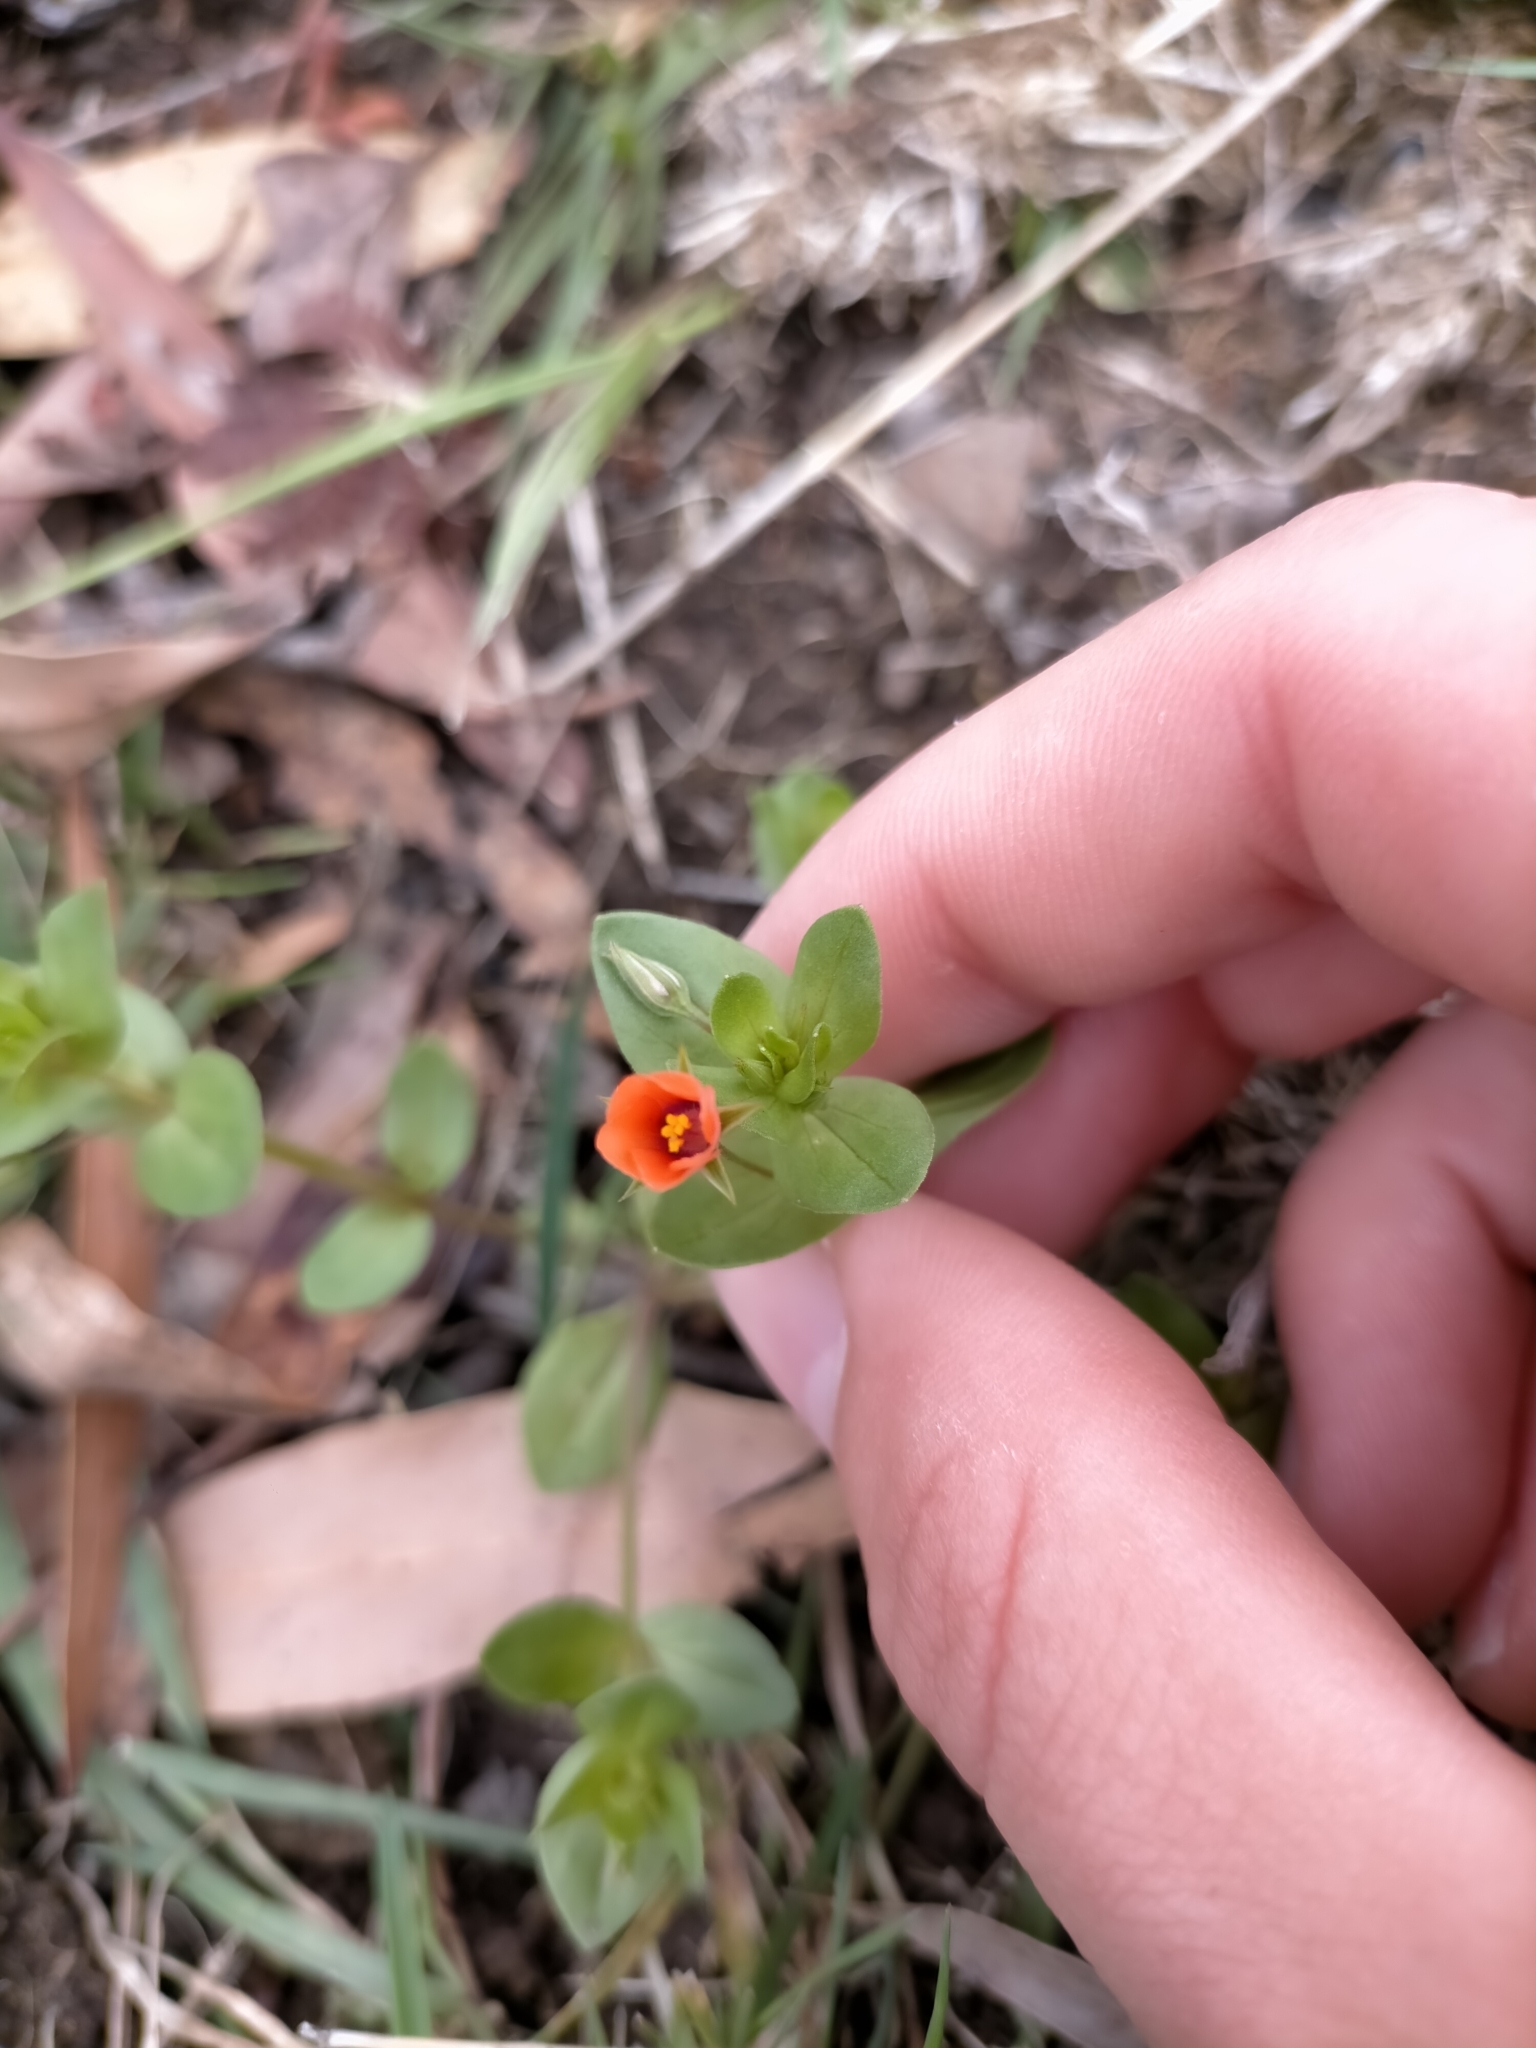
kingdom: Plantae
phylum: Tracheophyta
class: Magnoliopsida
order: Ericales
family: Primulaceae
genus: Lysimachia
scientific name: Lysimachia arvensis
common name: Scarlet pimpernel
